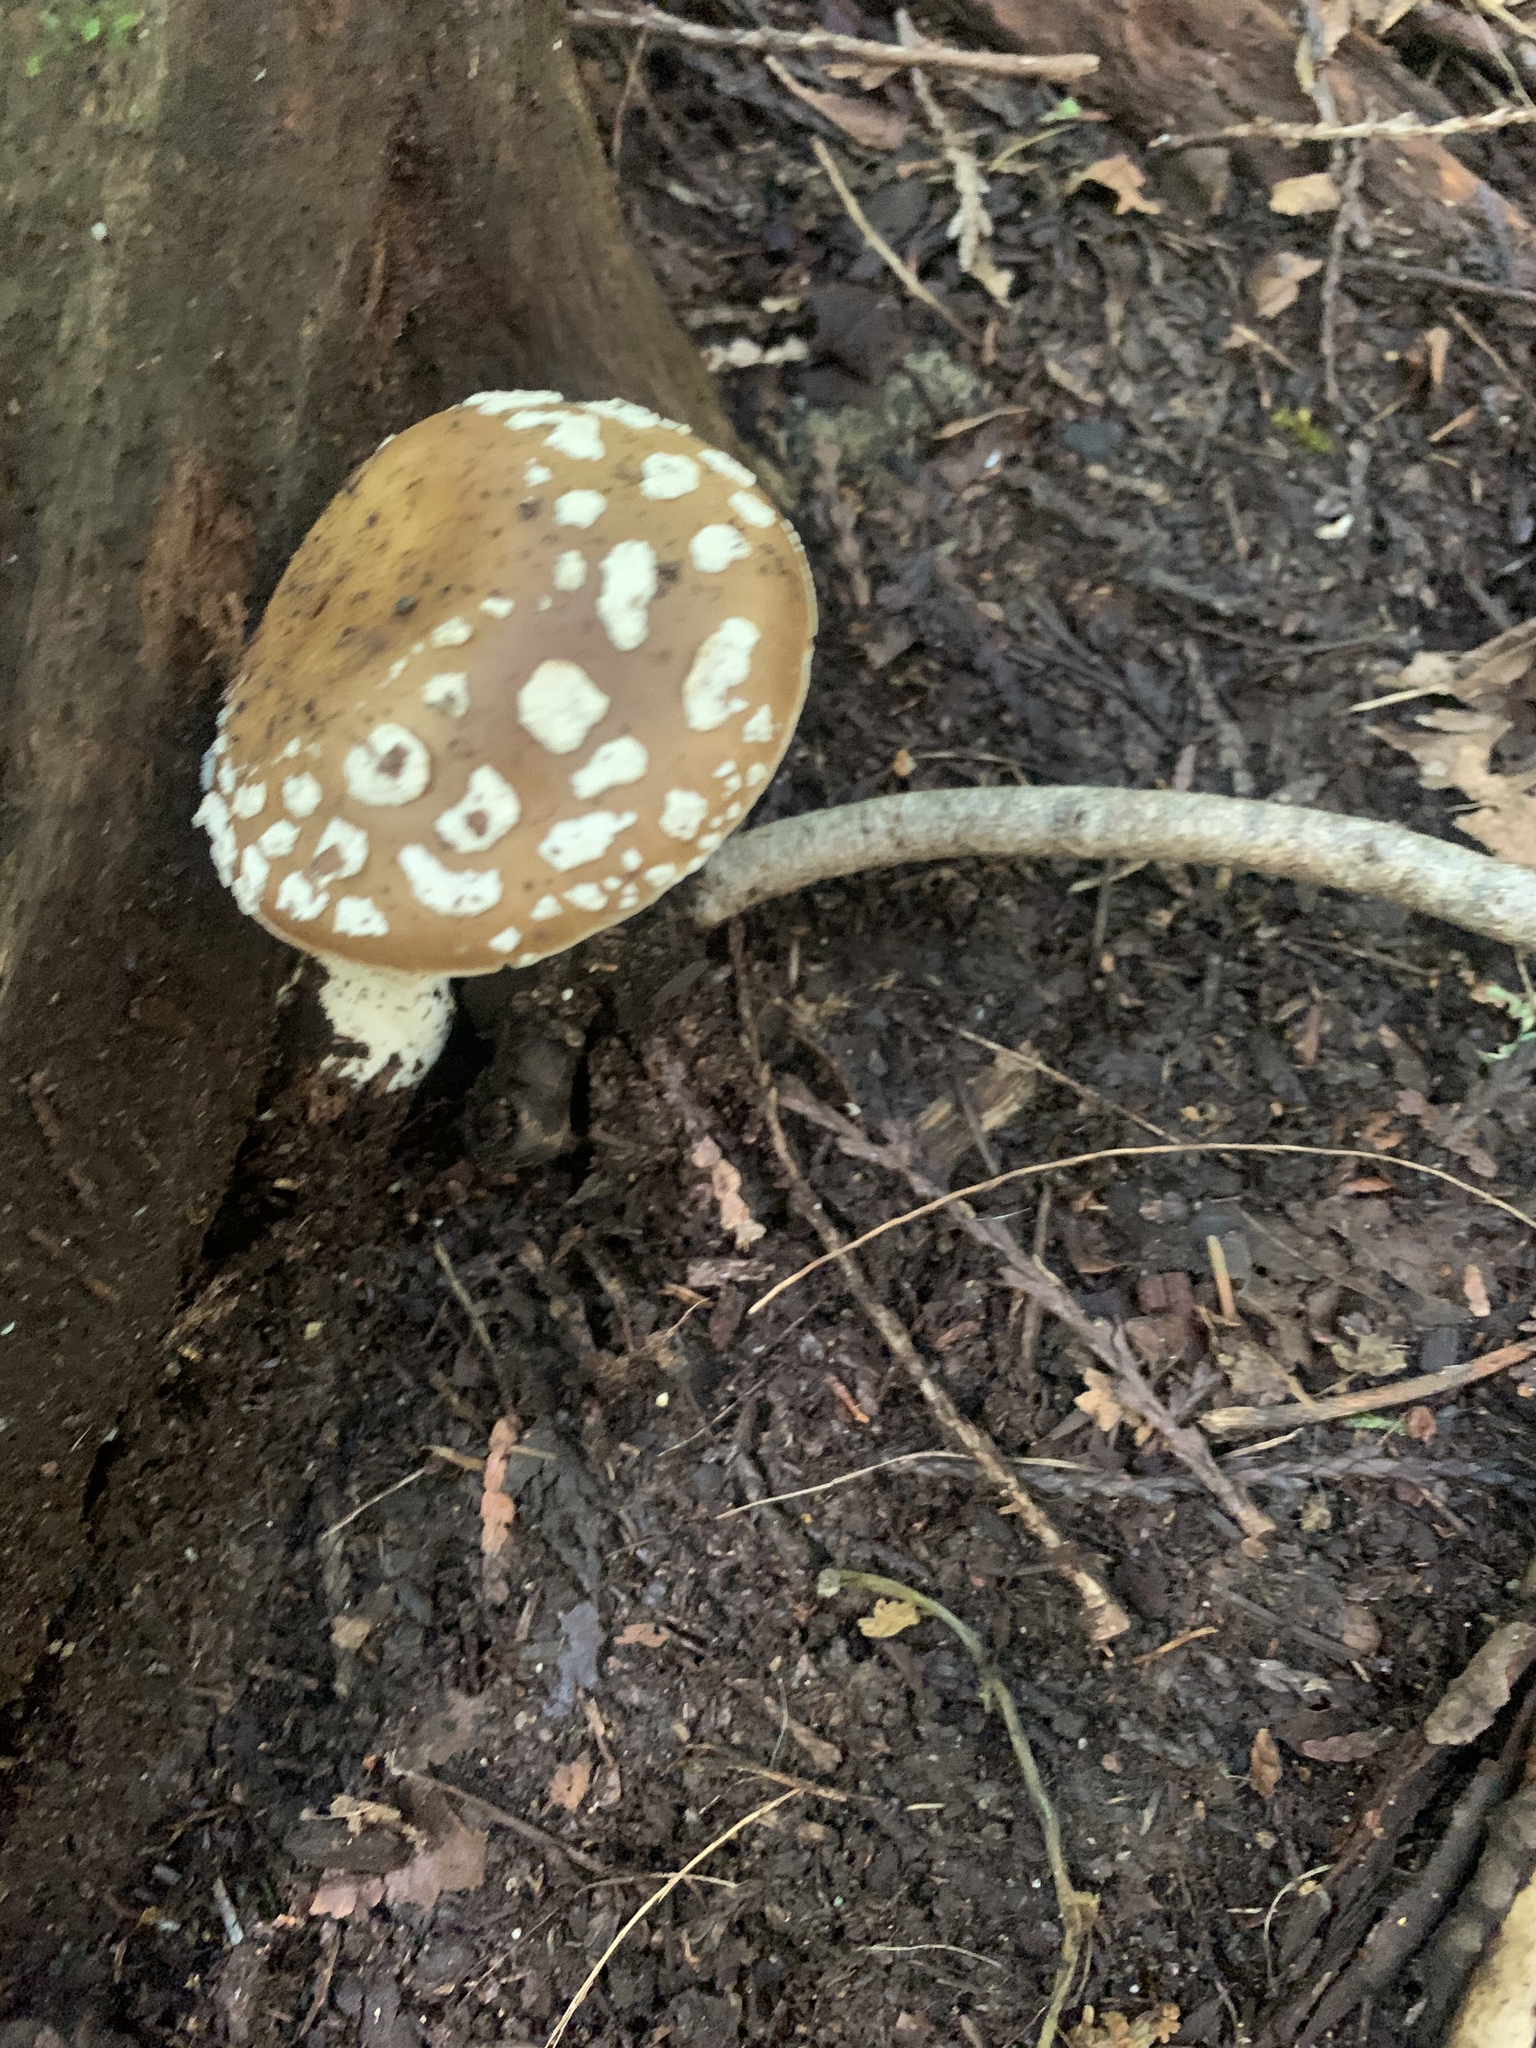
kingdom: Fungi
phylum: Basidiomycota
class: Agaricomycetes
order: Agaricales
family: Amanitaceae
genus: Amanita
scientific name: Amanita pantherinoides
